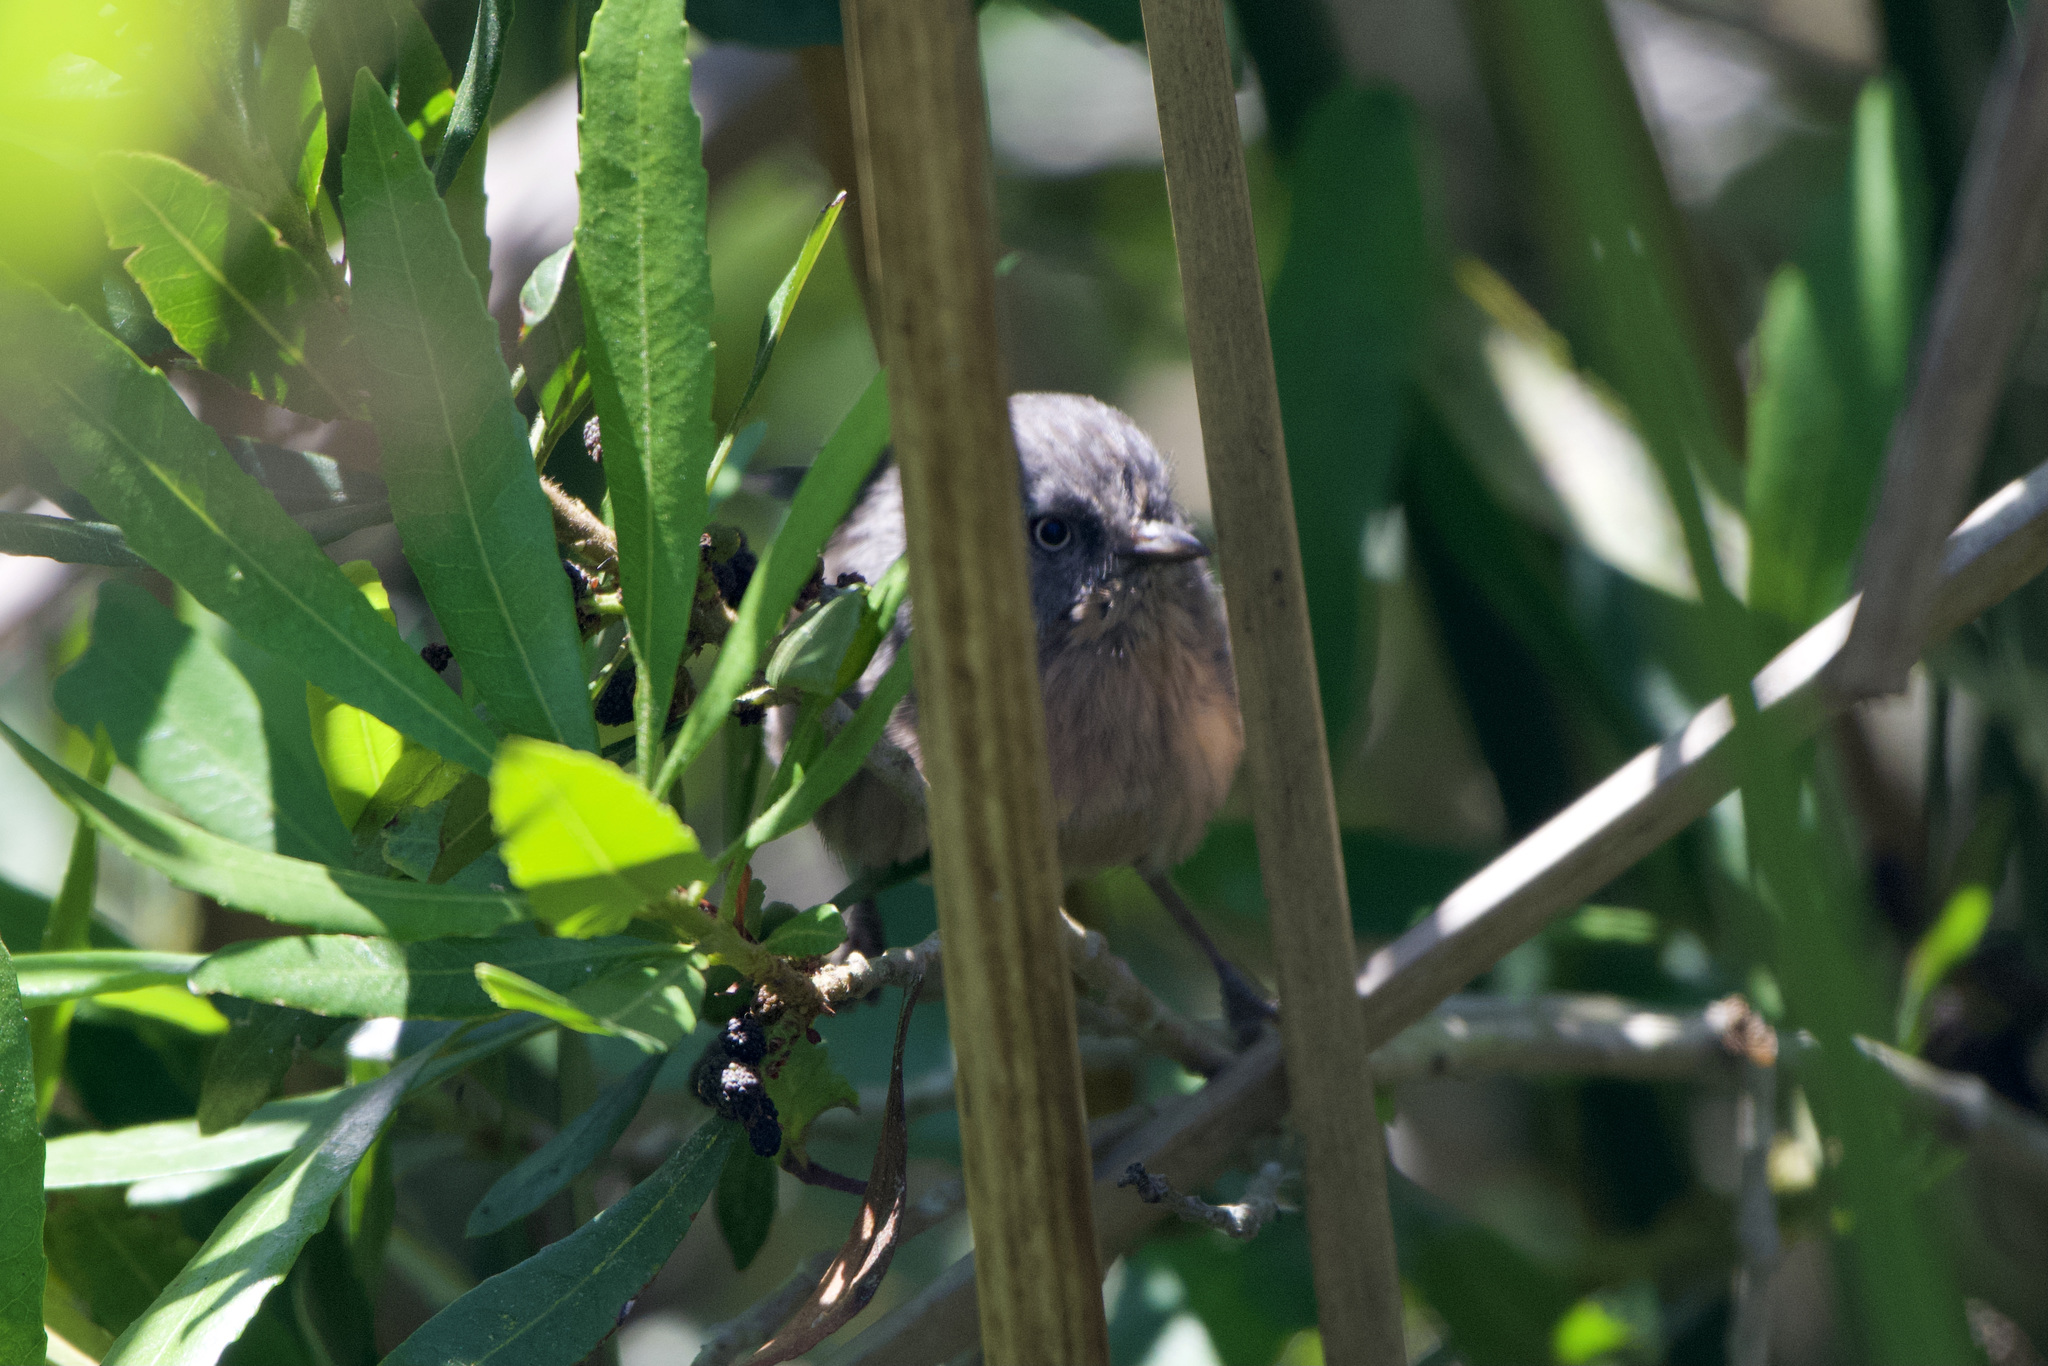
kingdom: Animalia
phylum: Chordata
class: Aves
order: Passeriformes
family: Sylviidae
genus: Chamaea
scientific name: Chamaea fasciata
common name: Wrentit
